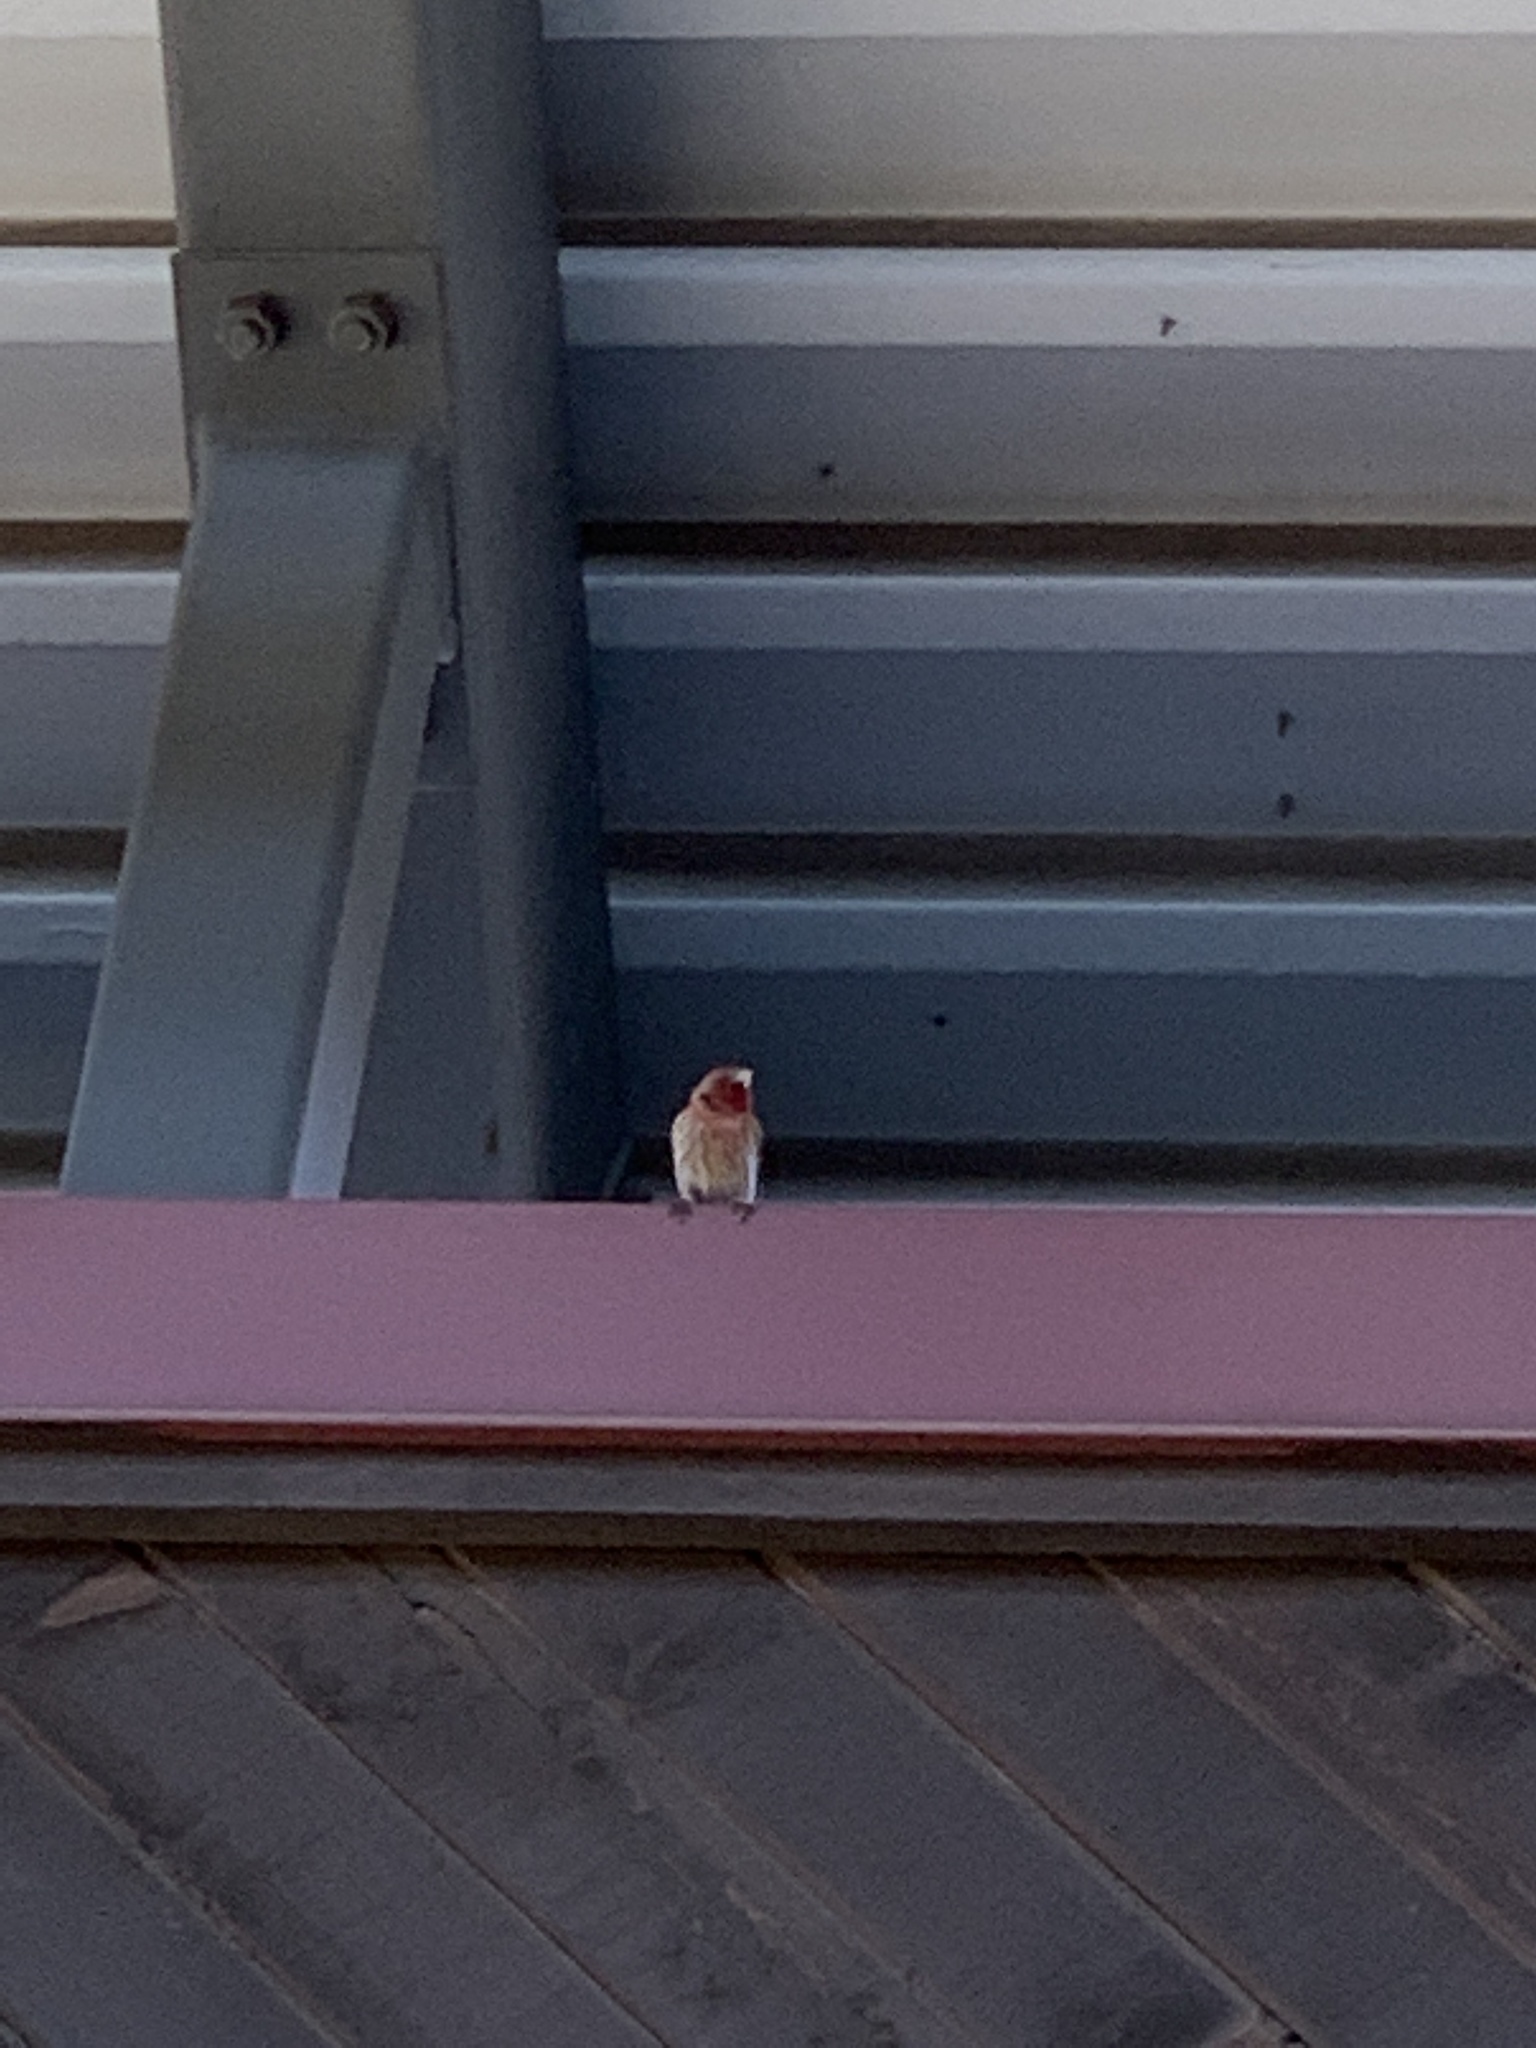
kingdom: Animalia
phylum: Chordata
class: Aves
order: Passeriformes
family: Fringillidae
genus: Haemorhous
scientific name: Haemorhous mexicanus
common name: House finch
